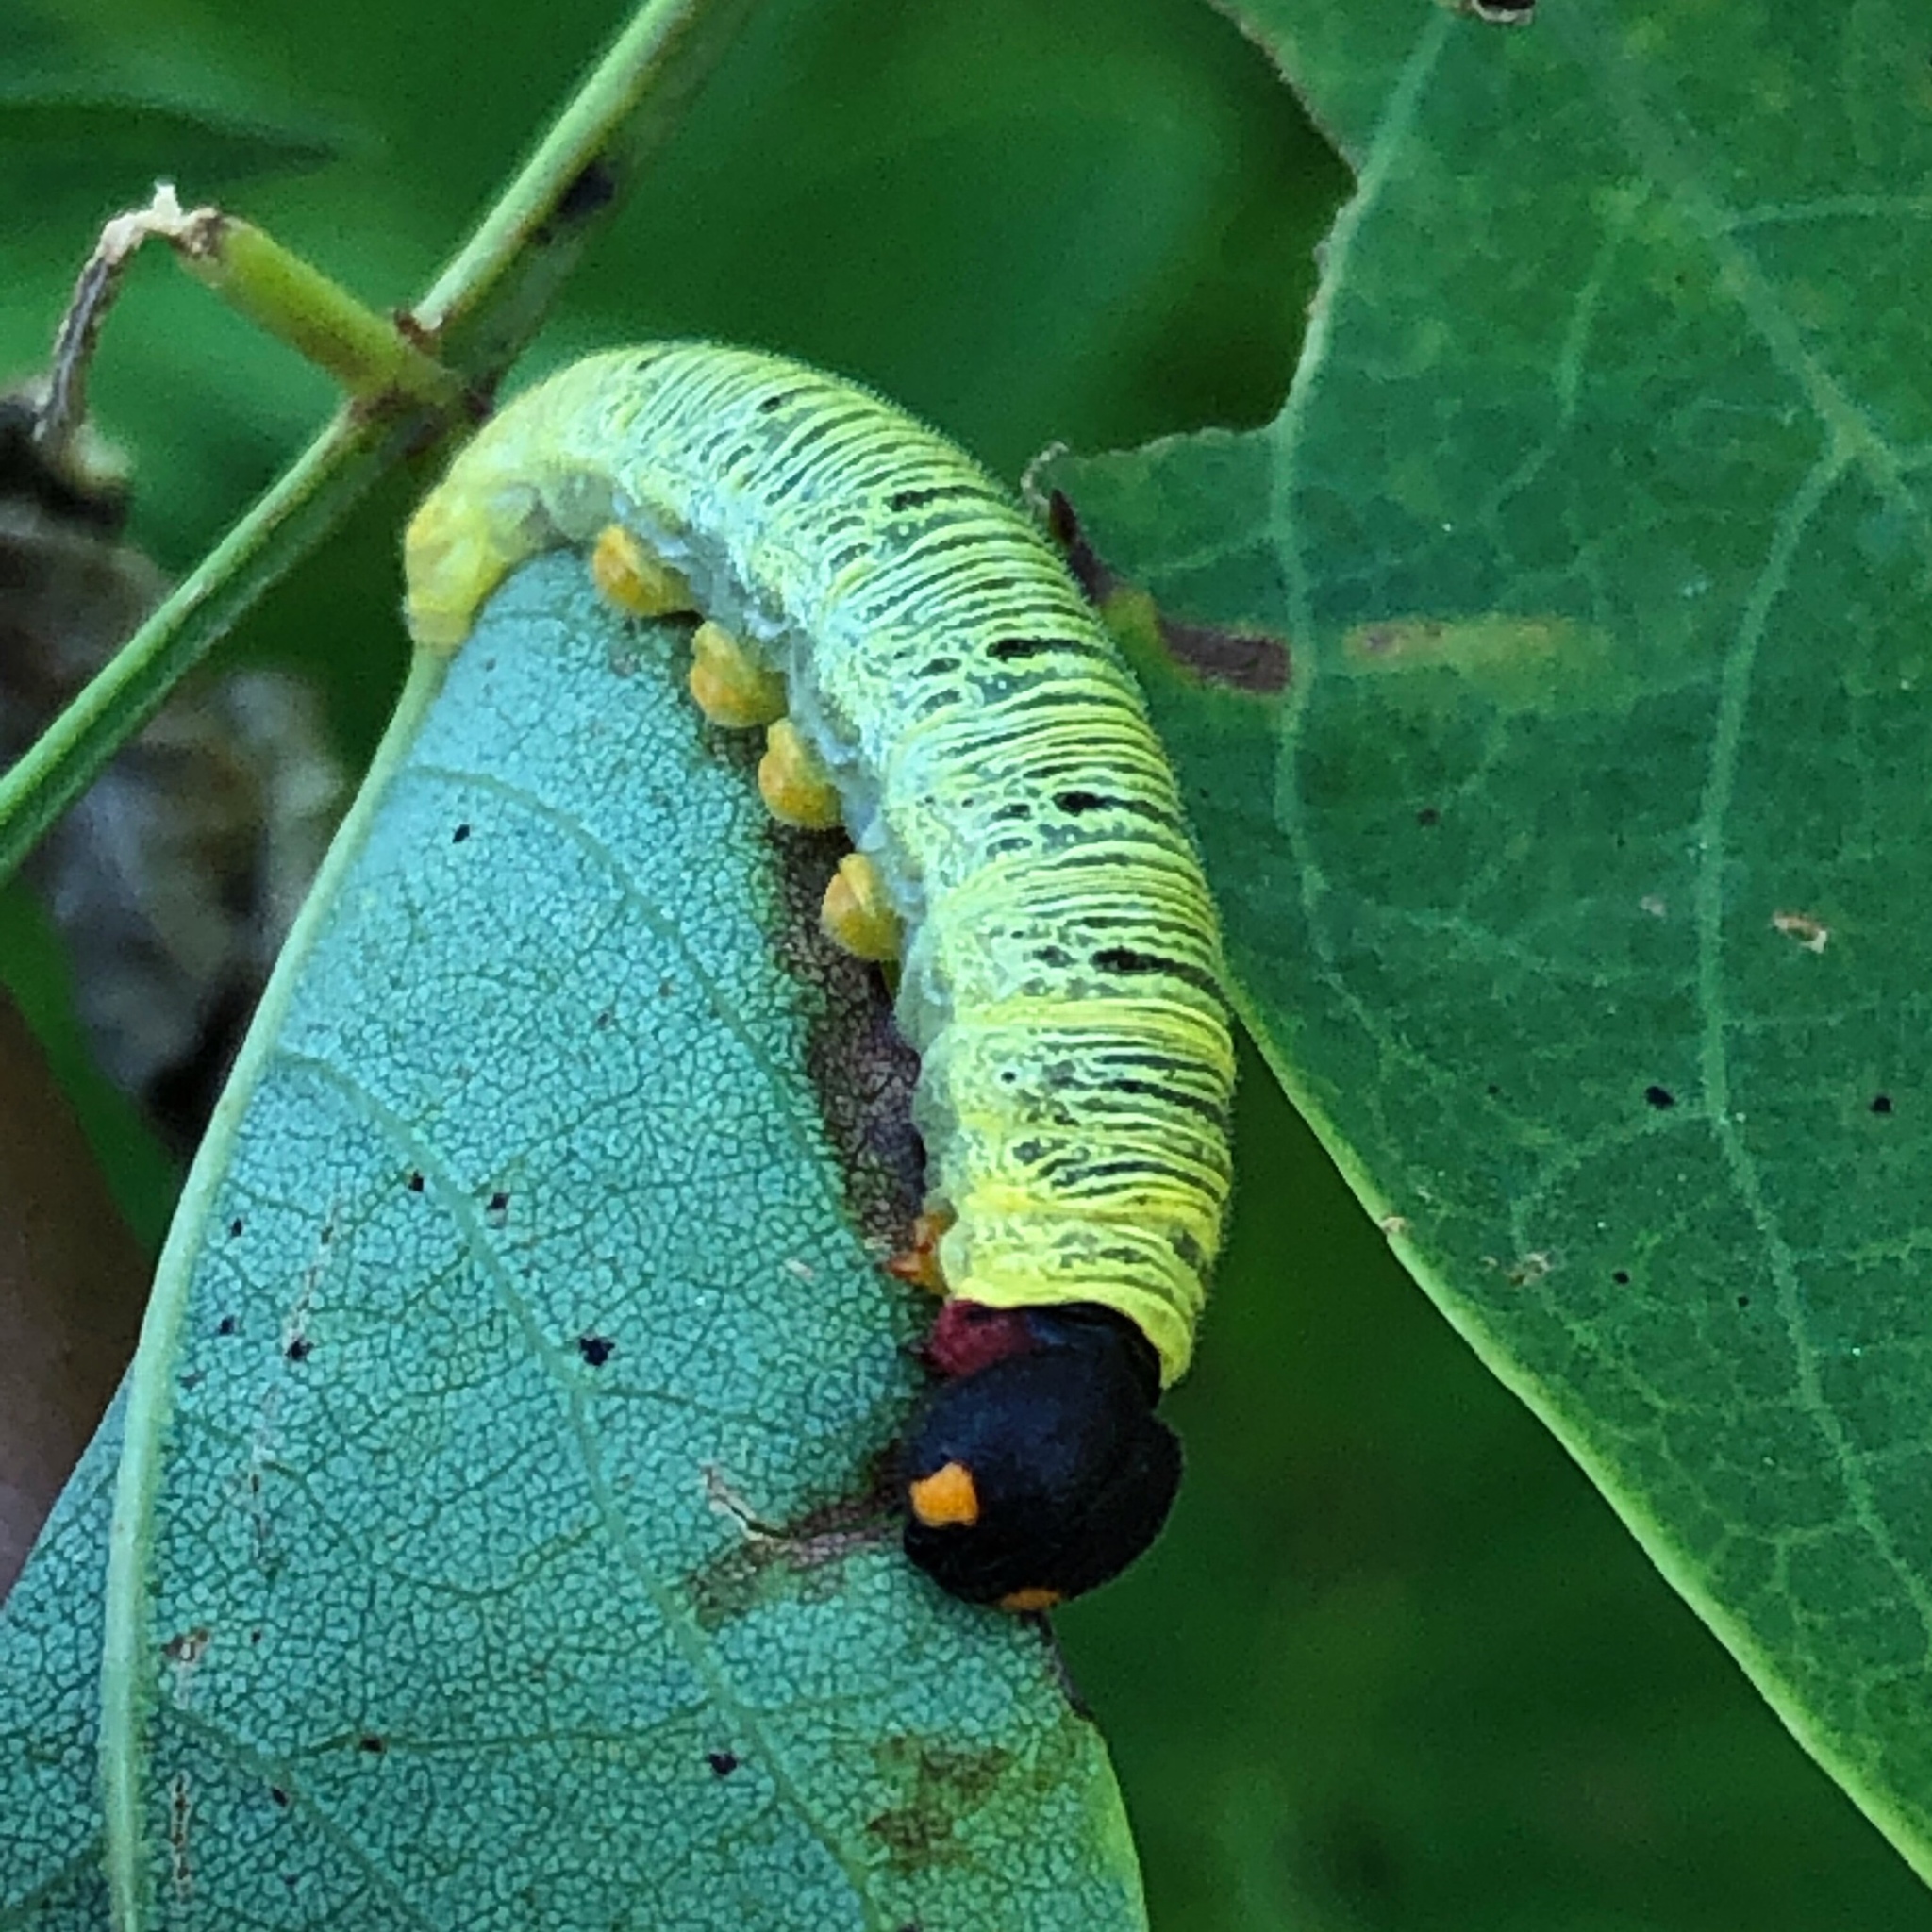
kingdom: Animalia
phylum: Arthropoda
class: Insecta
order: Lepidoptera
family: Hesperiidae
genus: Epargyreus
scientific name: Epargyreus clarus
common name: Silver-spotted skipper
